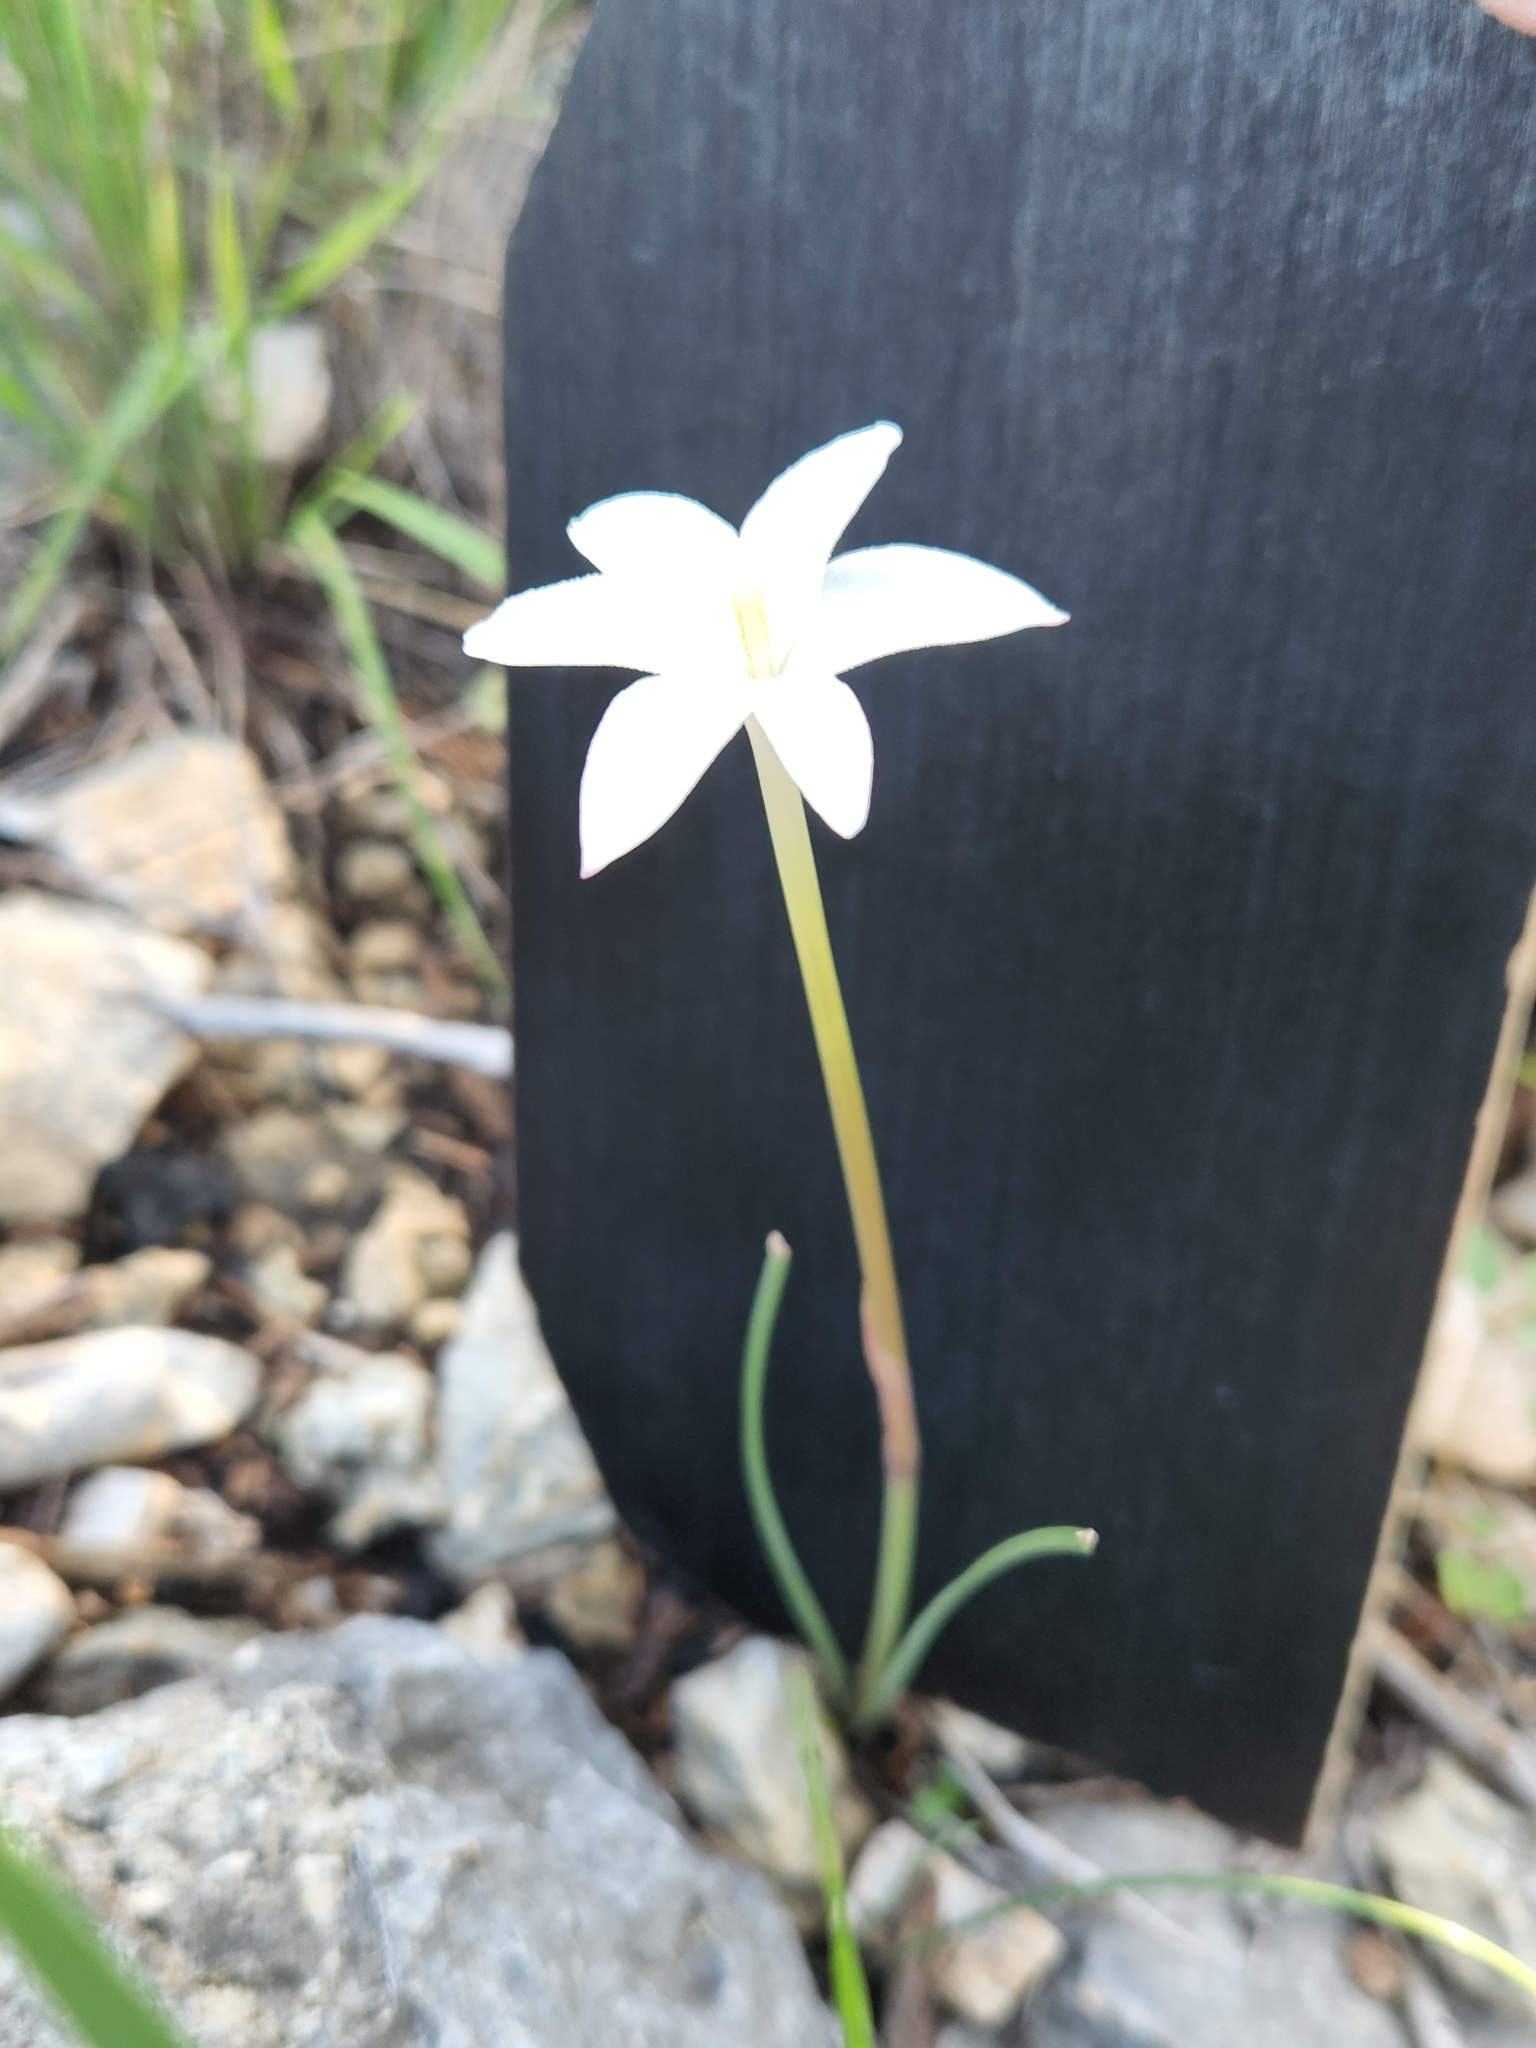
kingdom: Plantae
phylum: Tracheophyta
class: Liliopsida
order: Asparagales
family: Amaryllidaceae
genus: Zephyranthes
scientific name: Zephyranthes chlorosolen
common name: Evening rain-lily
